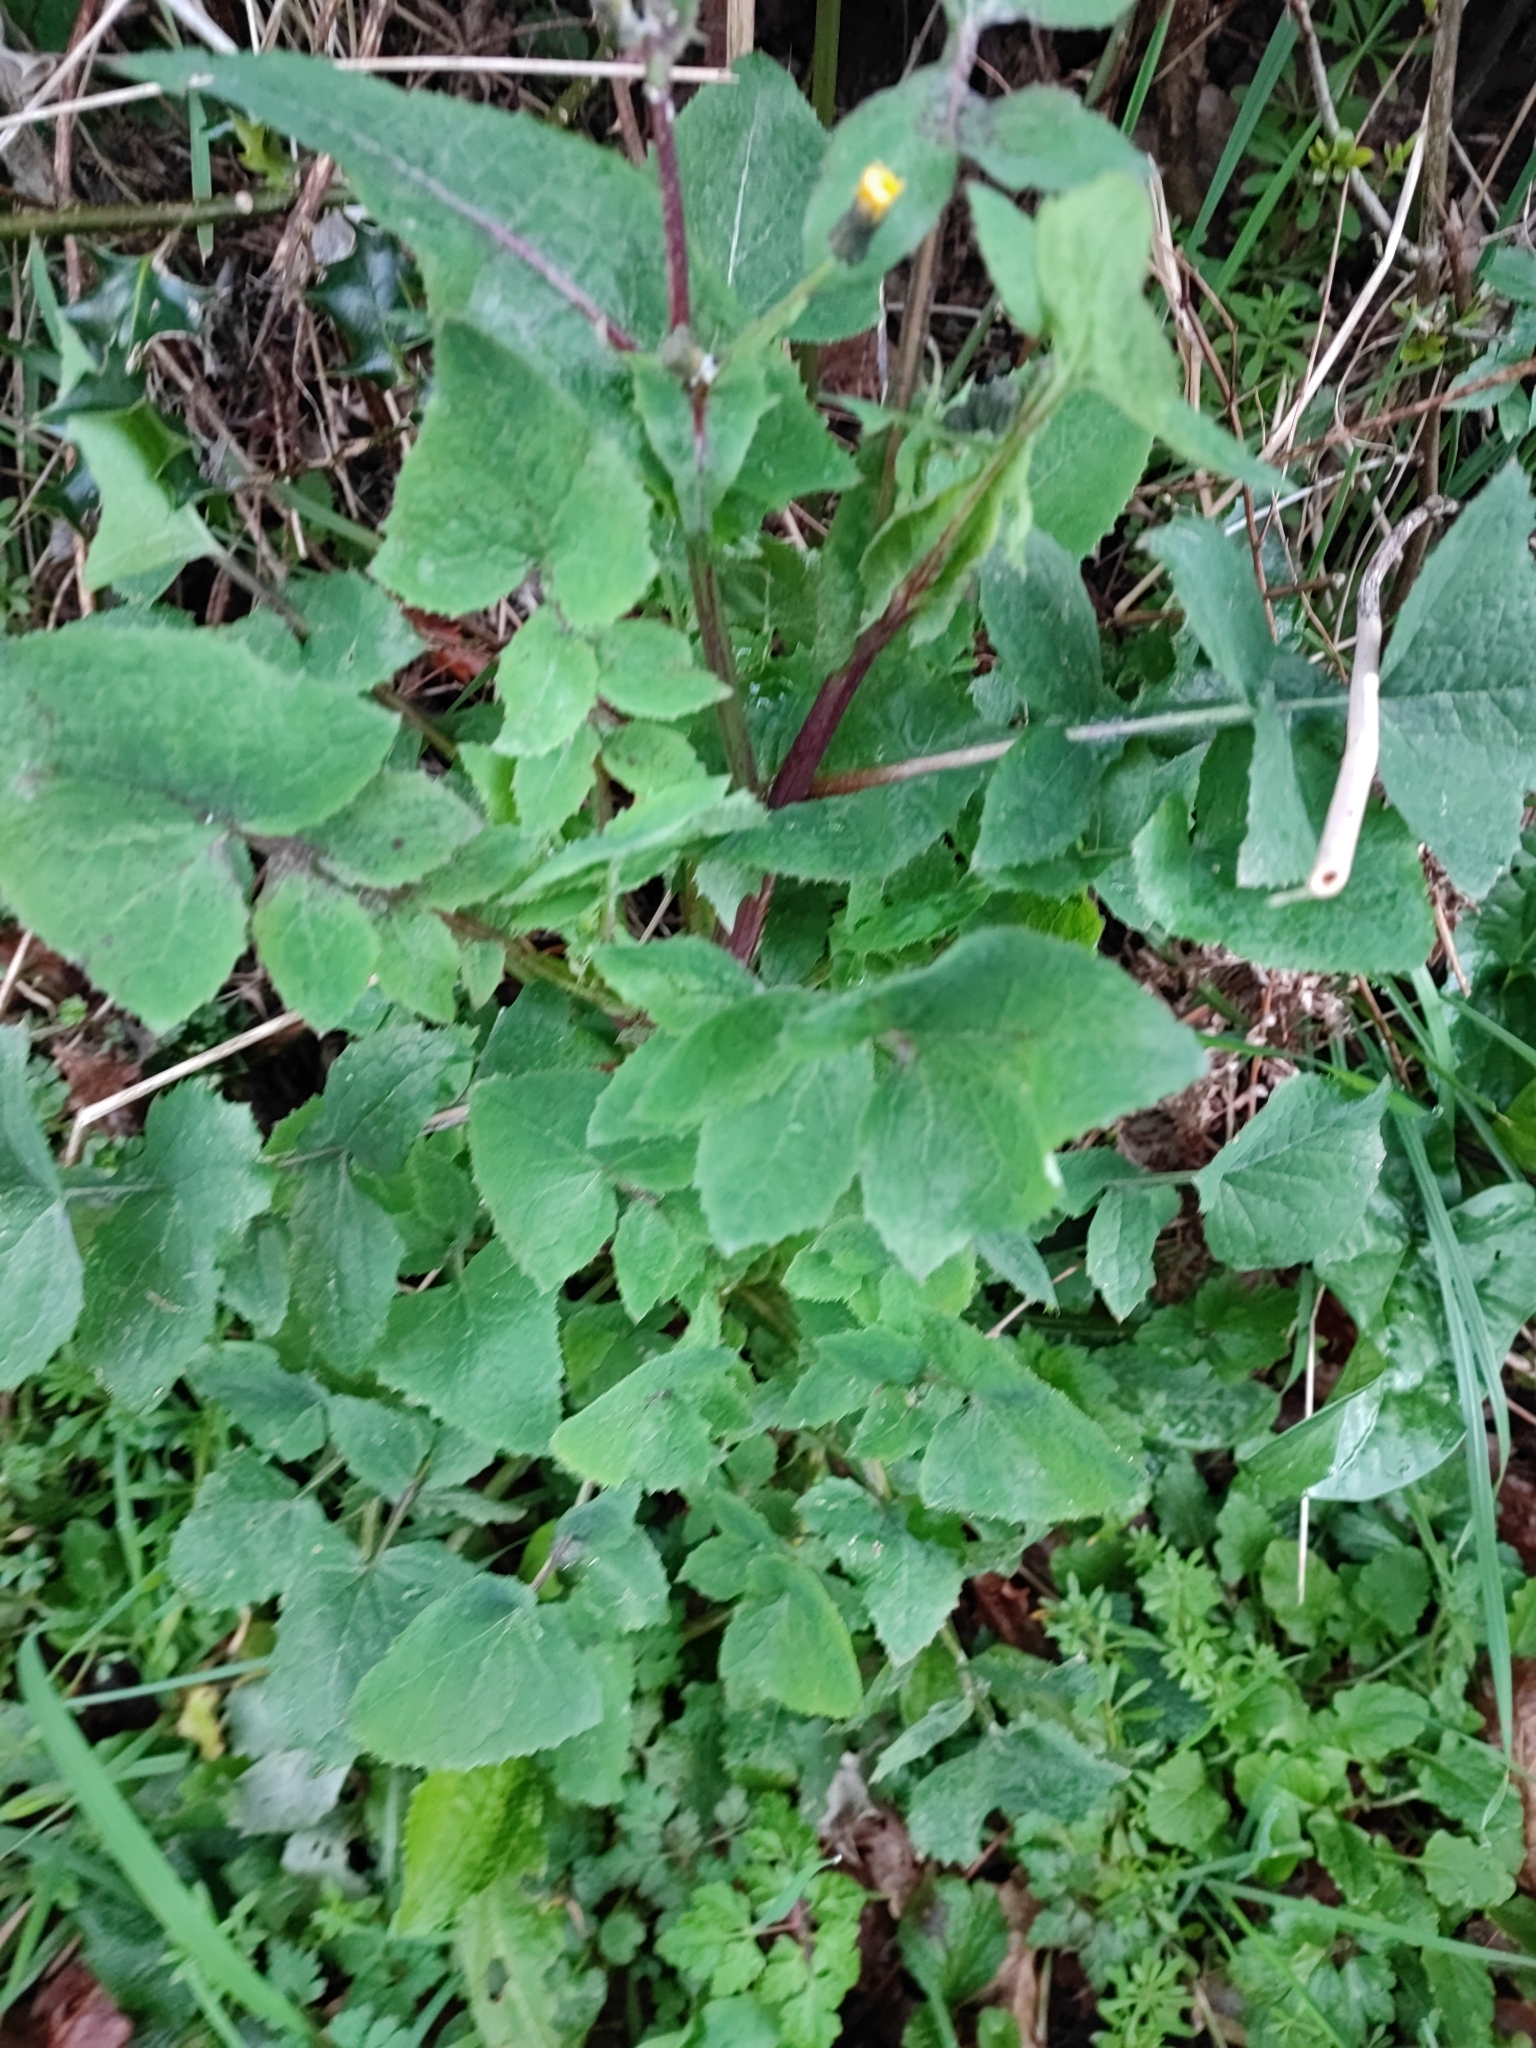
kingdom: Plantae
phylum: Tracheophyta
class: Magnoliopsida
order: Asterales
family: Asteraceae
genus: Sonchus
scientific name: Sonchus oleraceus
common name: Common sowthistle
